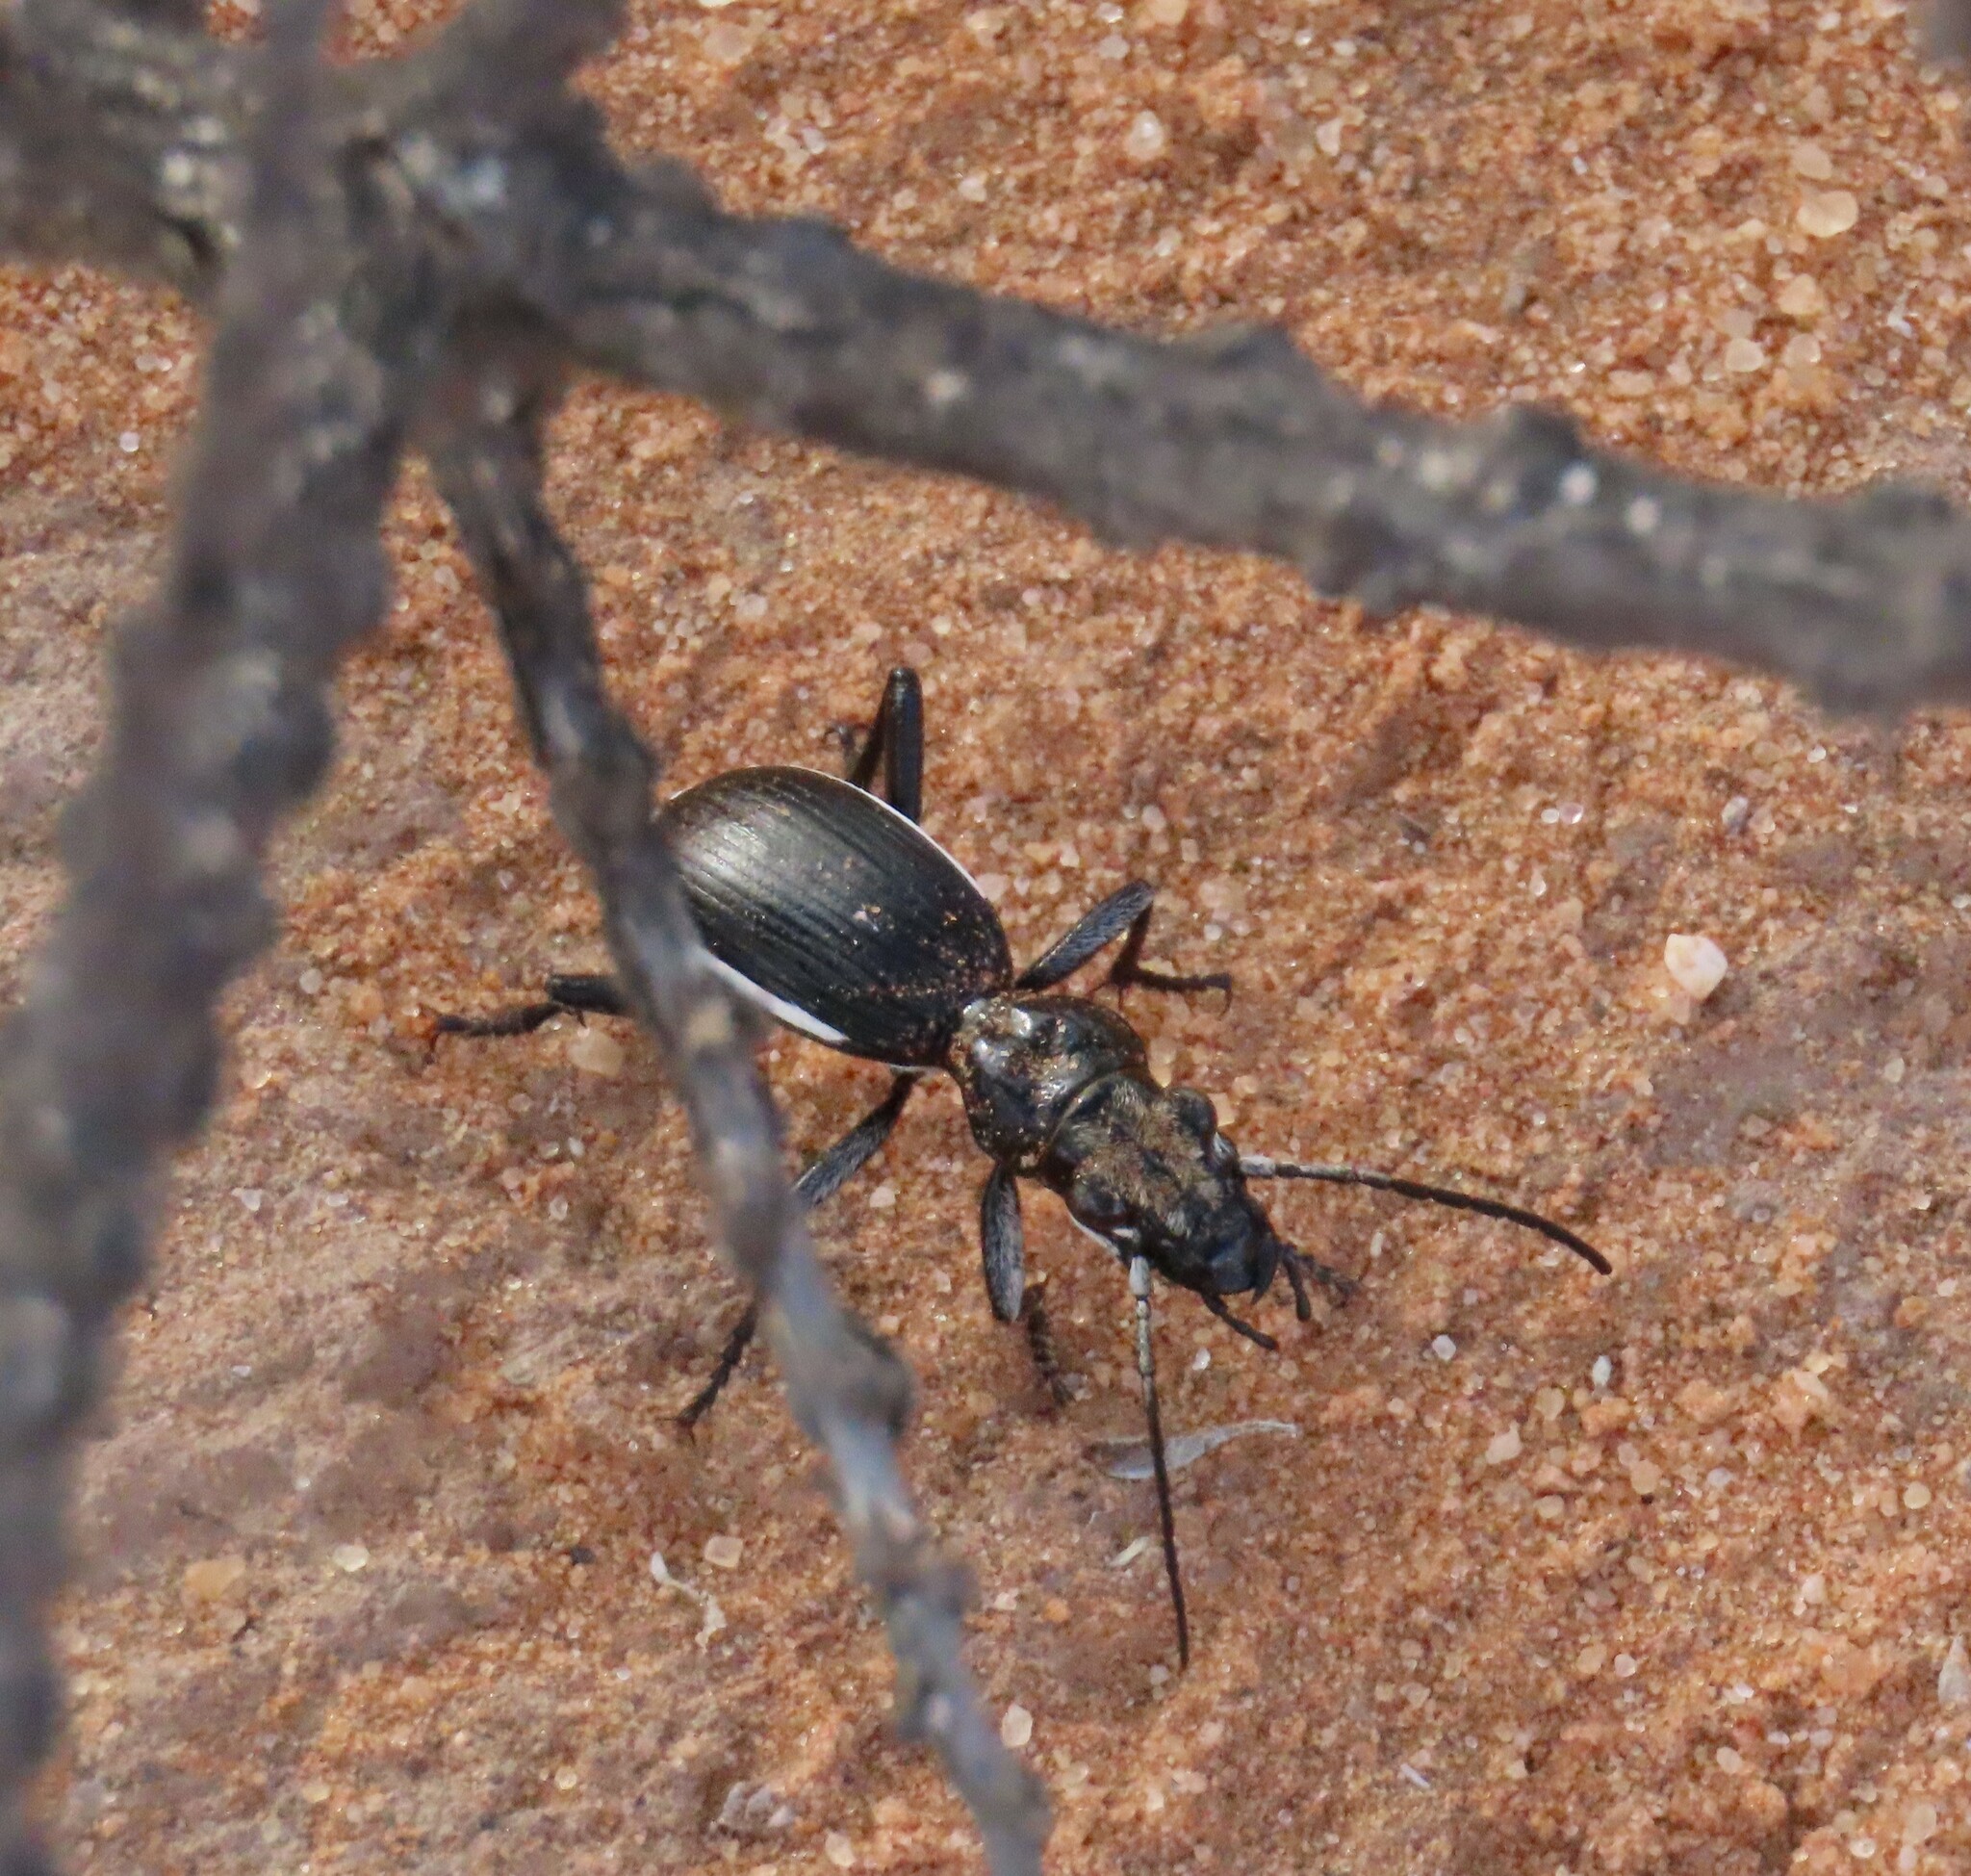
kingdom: Animalia
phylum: Arthropoda
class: Insecta
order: Coleoptera
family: Carabidae
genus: Anthia
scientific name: Anthia cinctipennis
